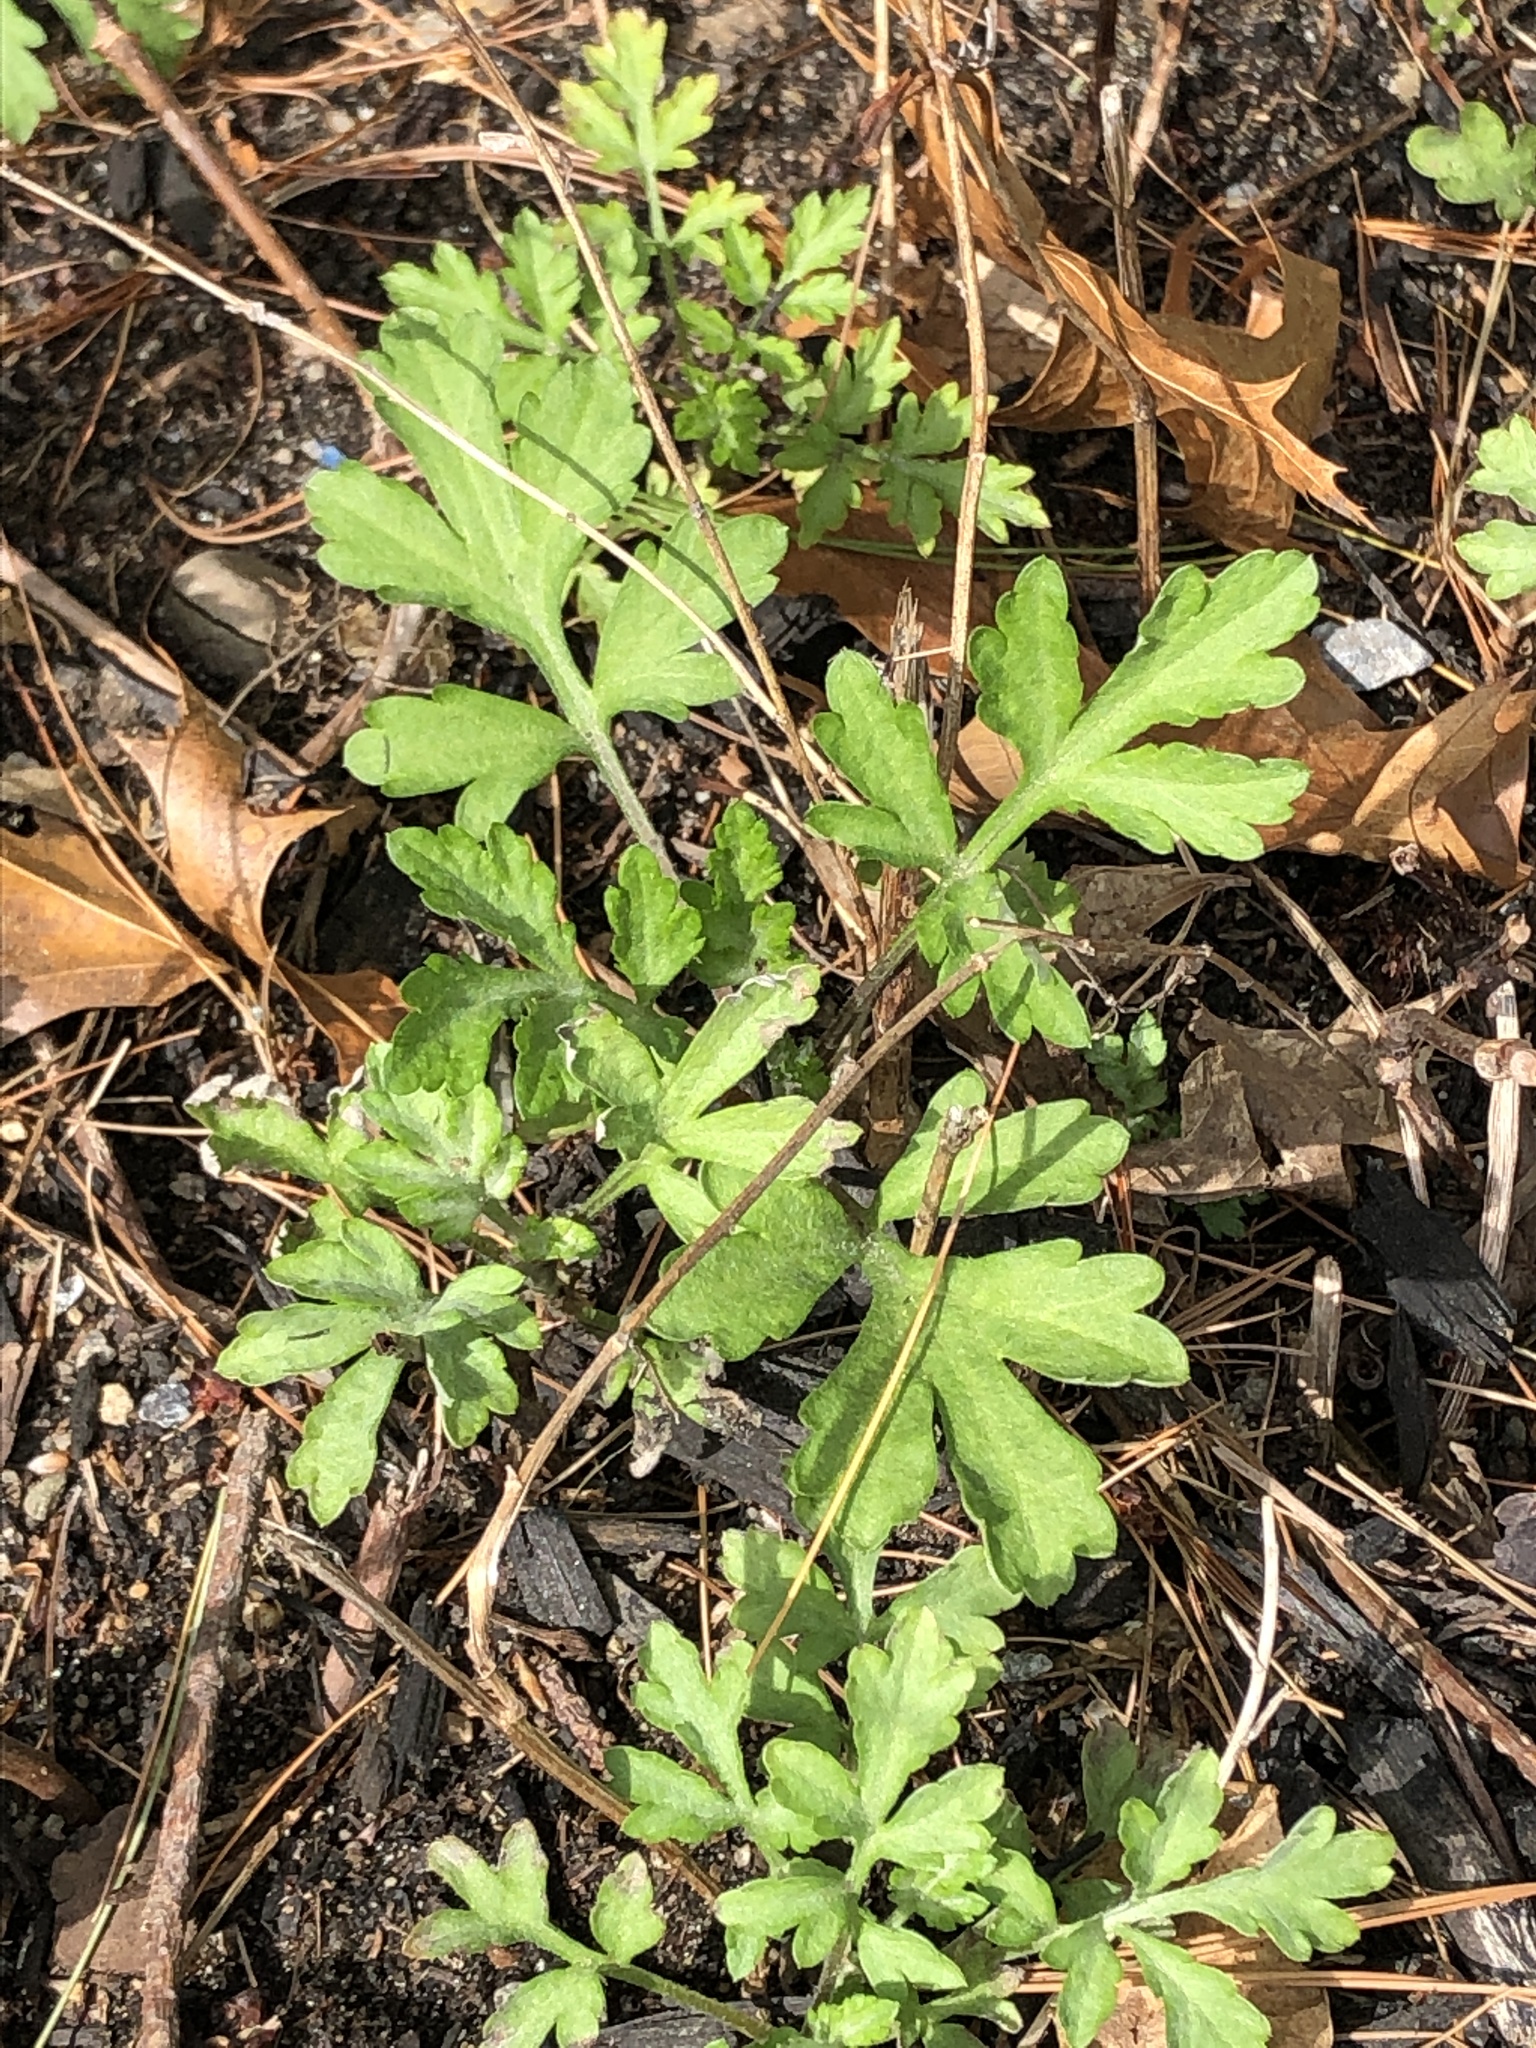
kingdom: Plantae
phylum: Tracheophyta
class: Magnoliopsida
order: Asterales
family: Asteraceae
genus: Artemisia
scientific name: Artemisia vulgaris
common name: Mugwort
